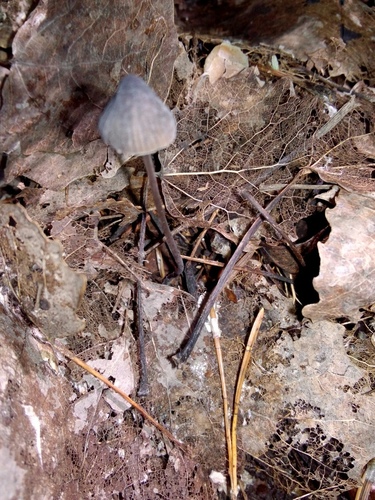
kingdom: Fungi
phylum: Basidiomycota
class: Agaricomycetes
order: Agaricales
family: Mycenaceae
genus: Mycena
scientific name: Mycena
